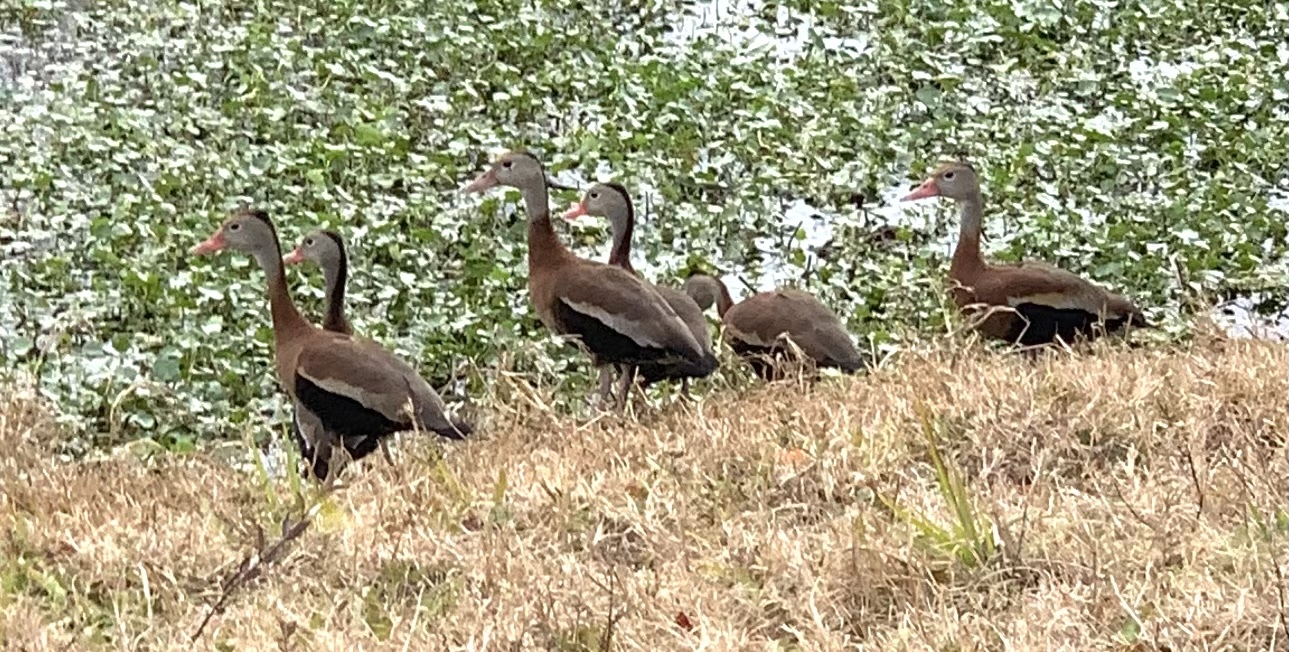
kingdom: Animalia
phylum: Chordata
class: Aves
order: Anseriformes
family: Anatidae
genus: Dendrocygna
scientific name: Dendrocygna autumnalis
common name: Black-bellied whistling duck
